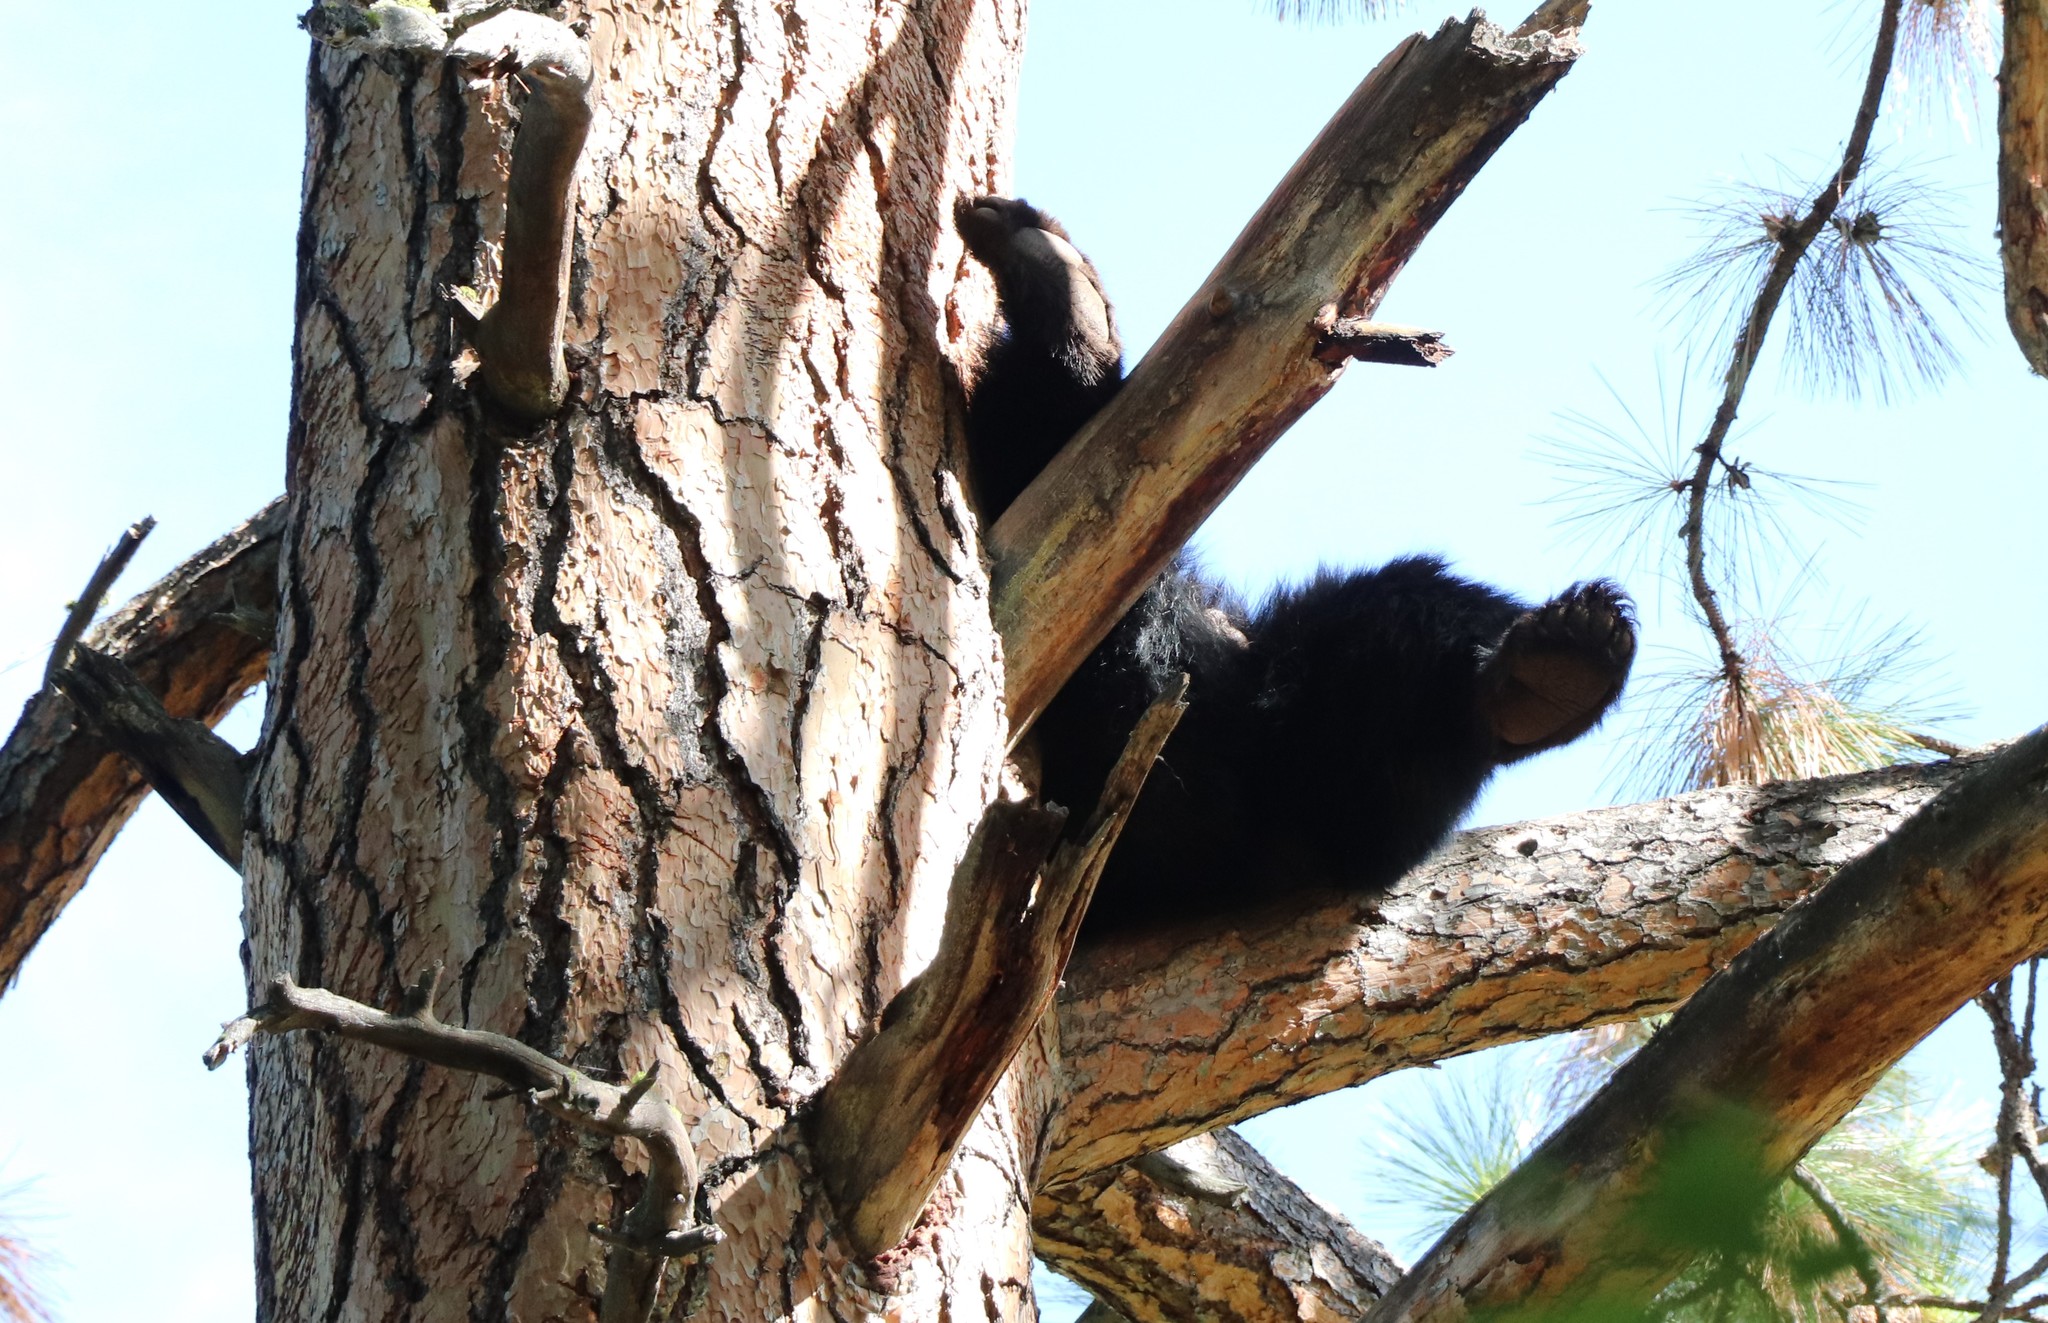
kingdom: Animalia
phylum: Chordata
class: Mammalia
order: Carnivora
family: Ursidae
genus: Ursus
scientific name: Ursus americanus
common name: American black bear
